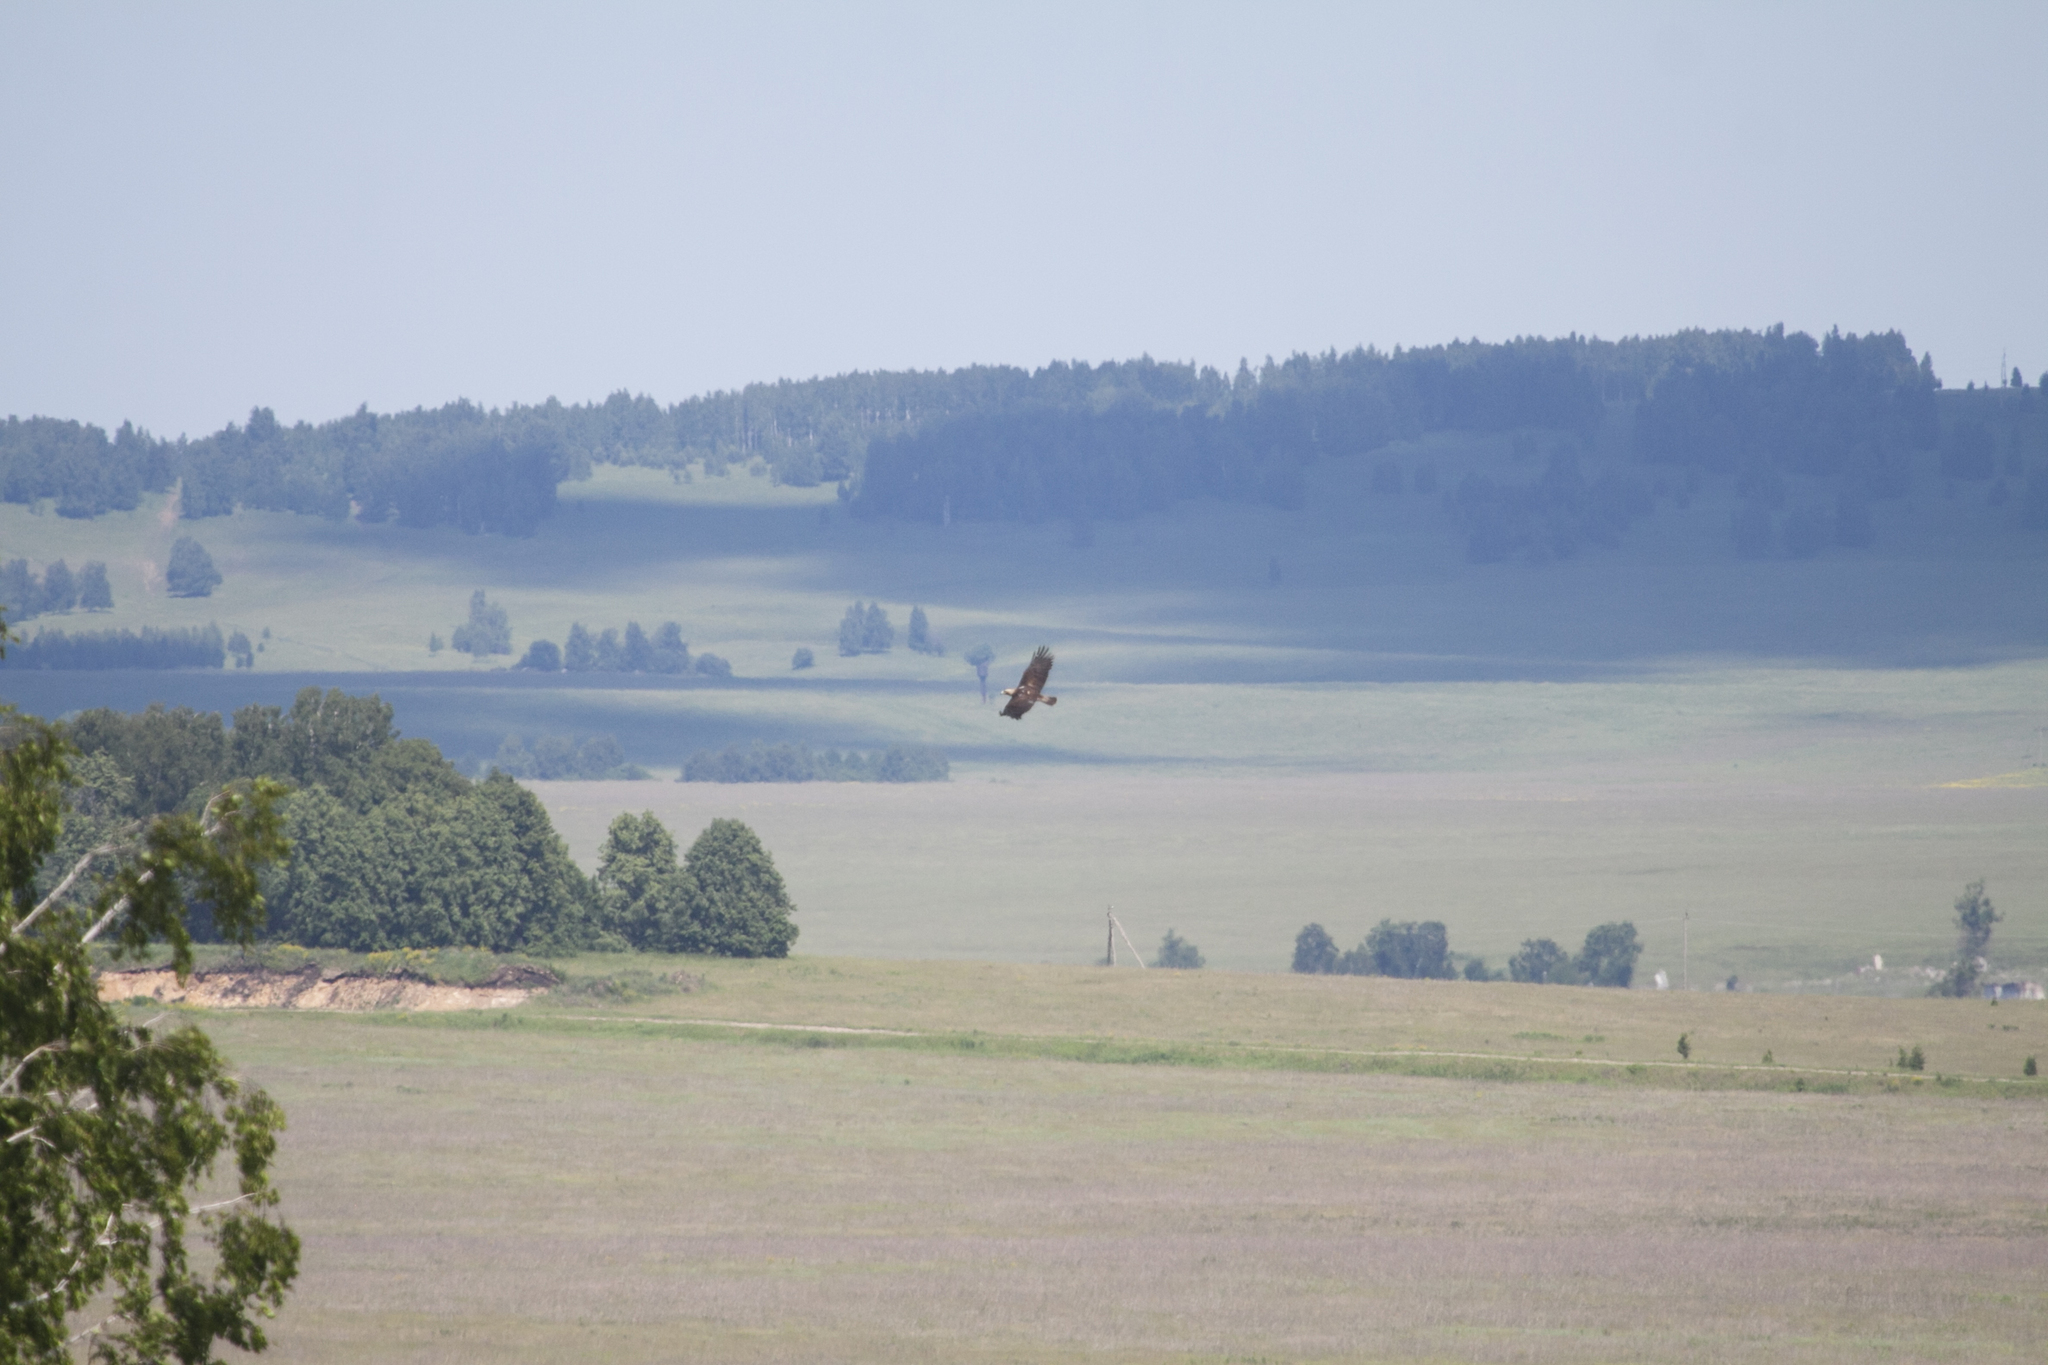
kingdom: Animalia
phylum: Chordata
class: Aves
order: Accipitriformes
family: Accipitridae
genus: Aquila
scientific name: Aquila heliaca
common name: Eastern imperial eagle
